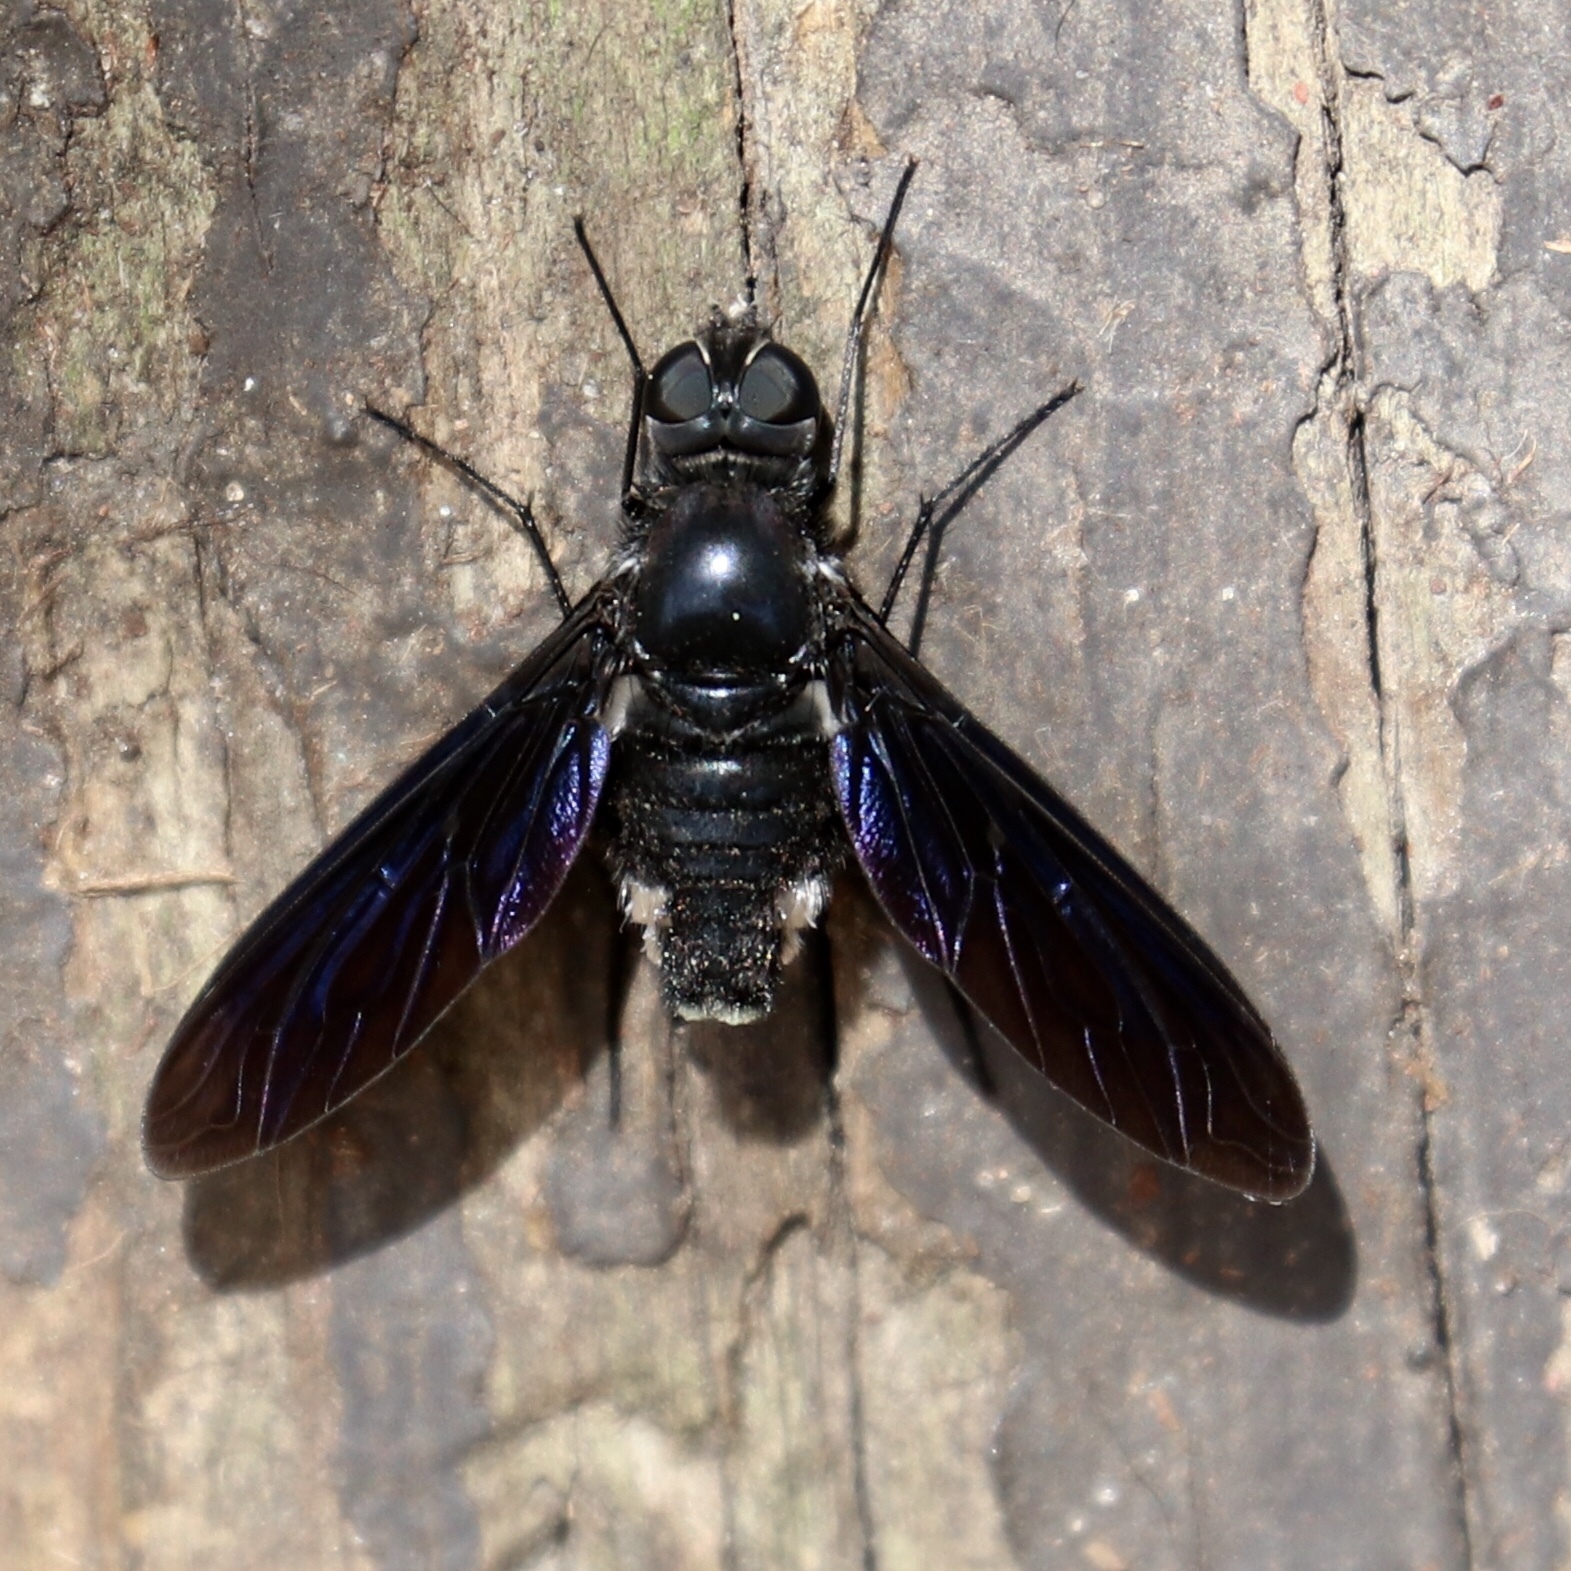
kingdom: Animalia
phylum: Arthropoda
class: Insecta
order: Diptera
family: Bombyliidae
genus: Brachyanax
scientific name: Brachyanax aterrimus
